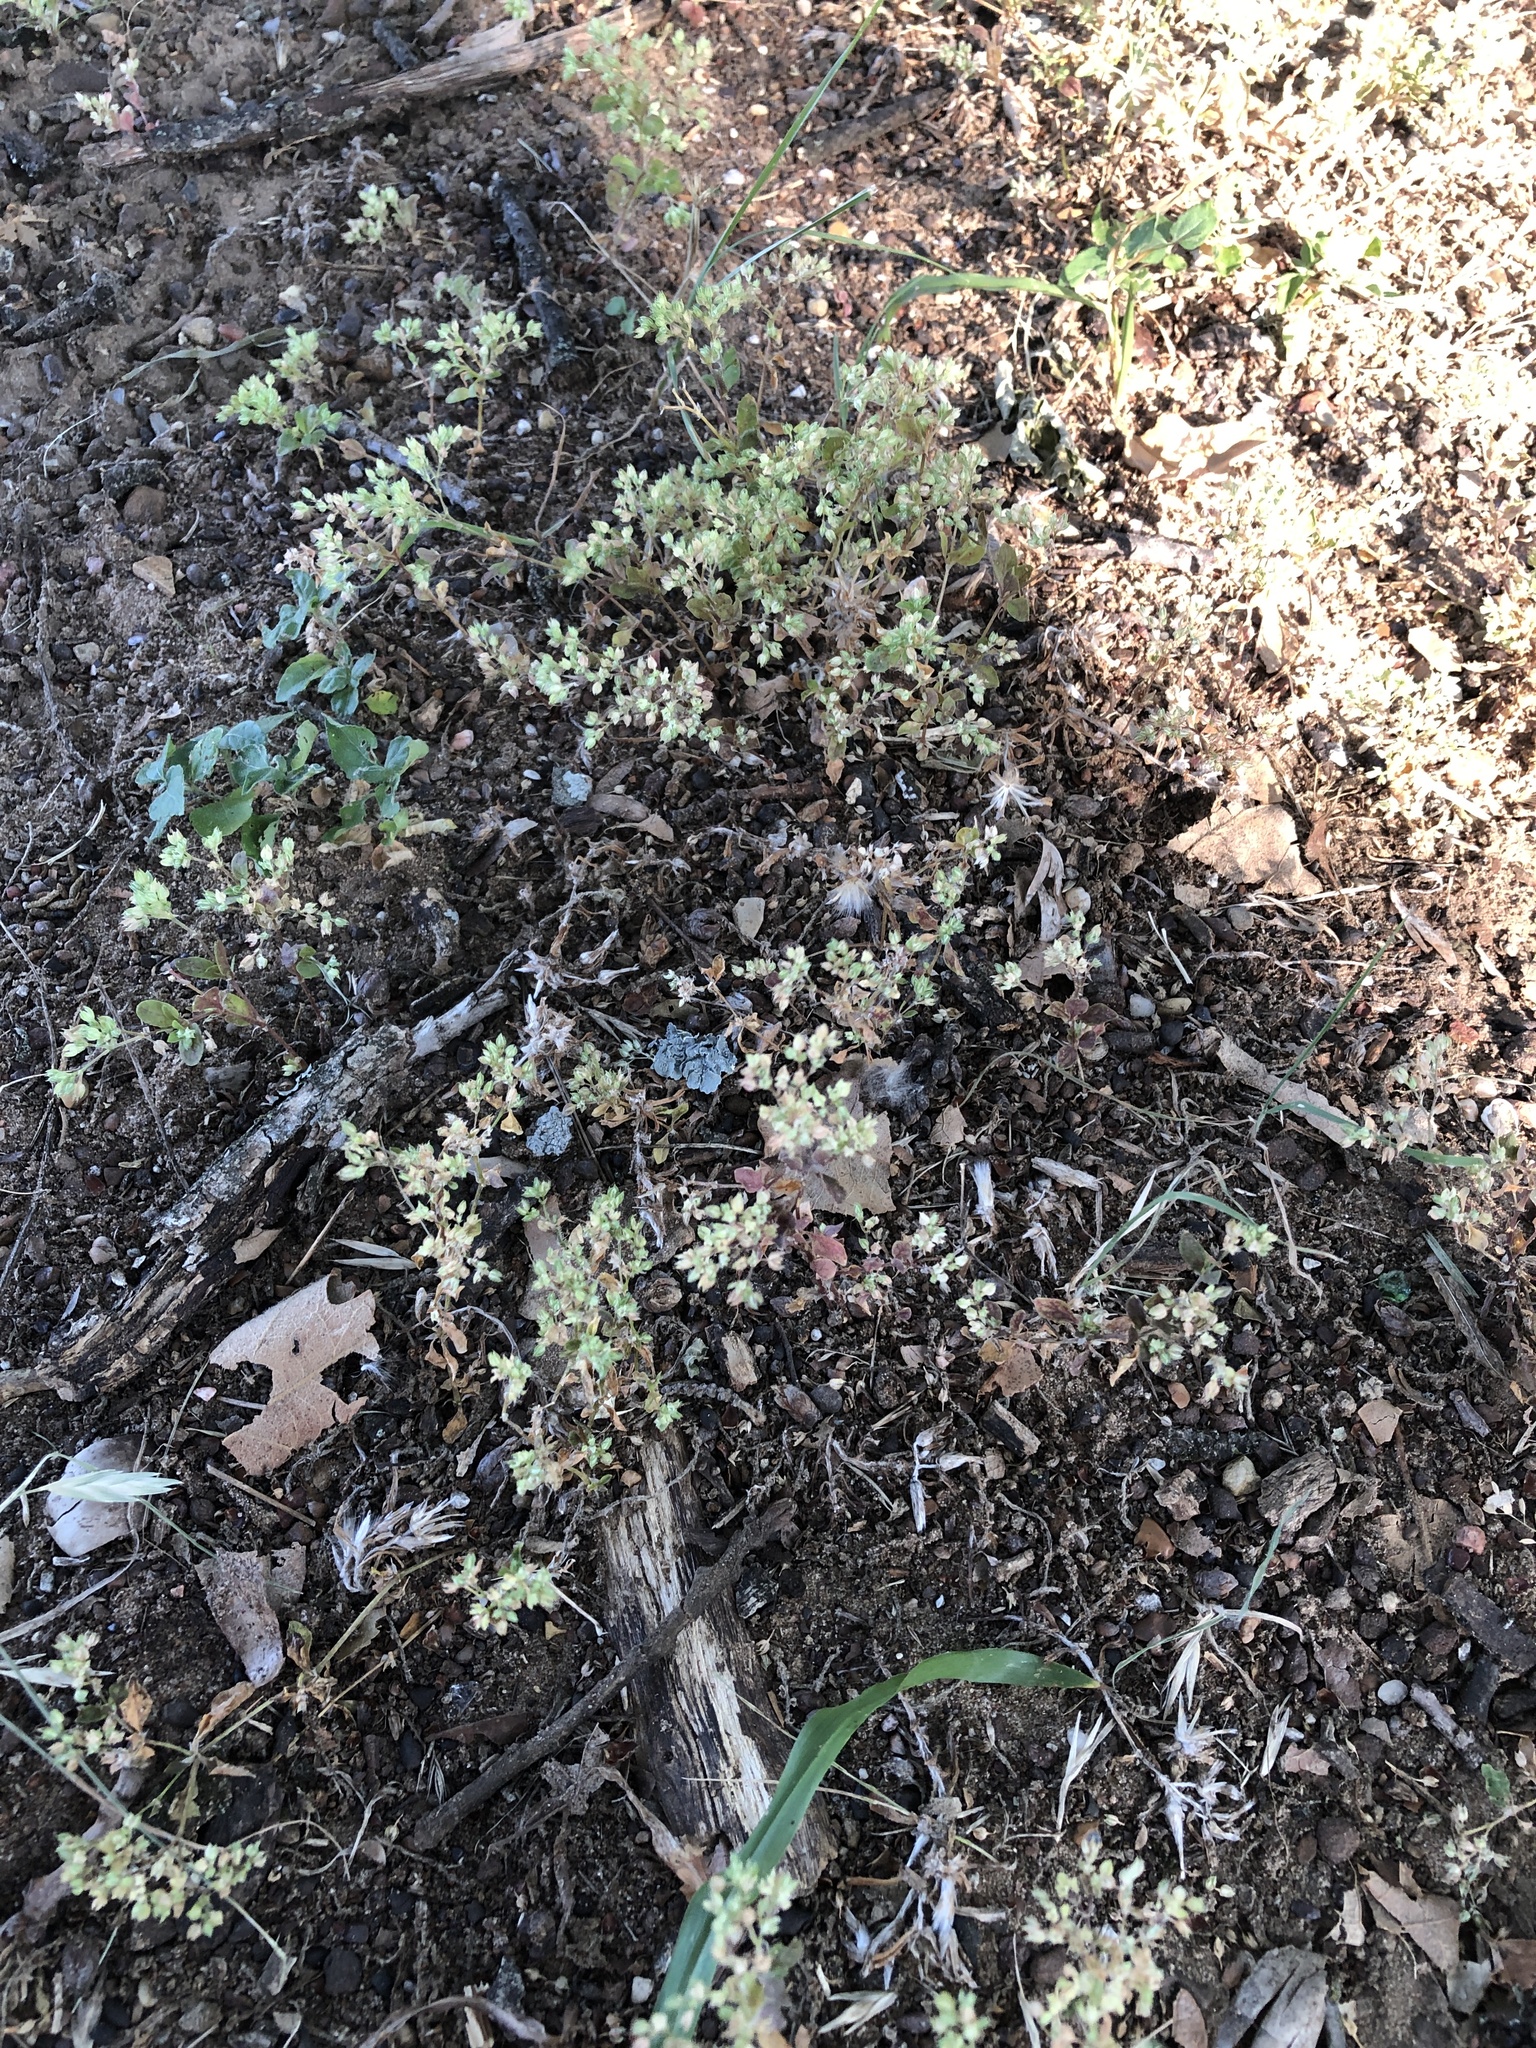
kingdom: Plantae
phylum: Tracheophyta
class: Magnoliopsida
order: Caryophyllales
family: Caryophyllaceae
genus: Polycarpon
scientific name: Polycarpon tetraphyllum
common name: Four-leaved all-seed
